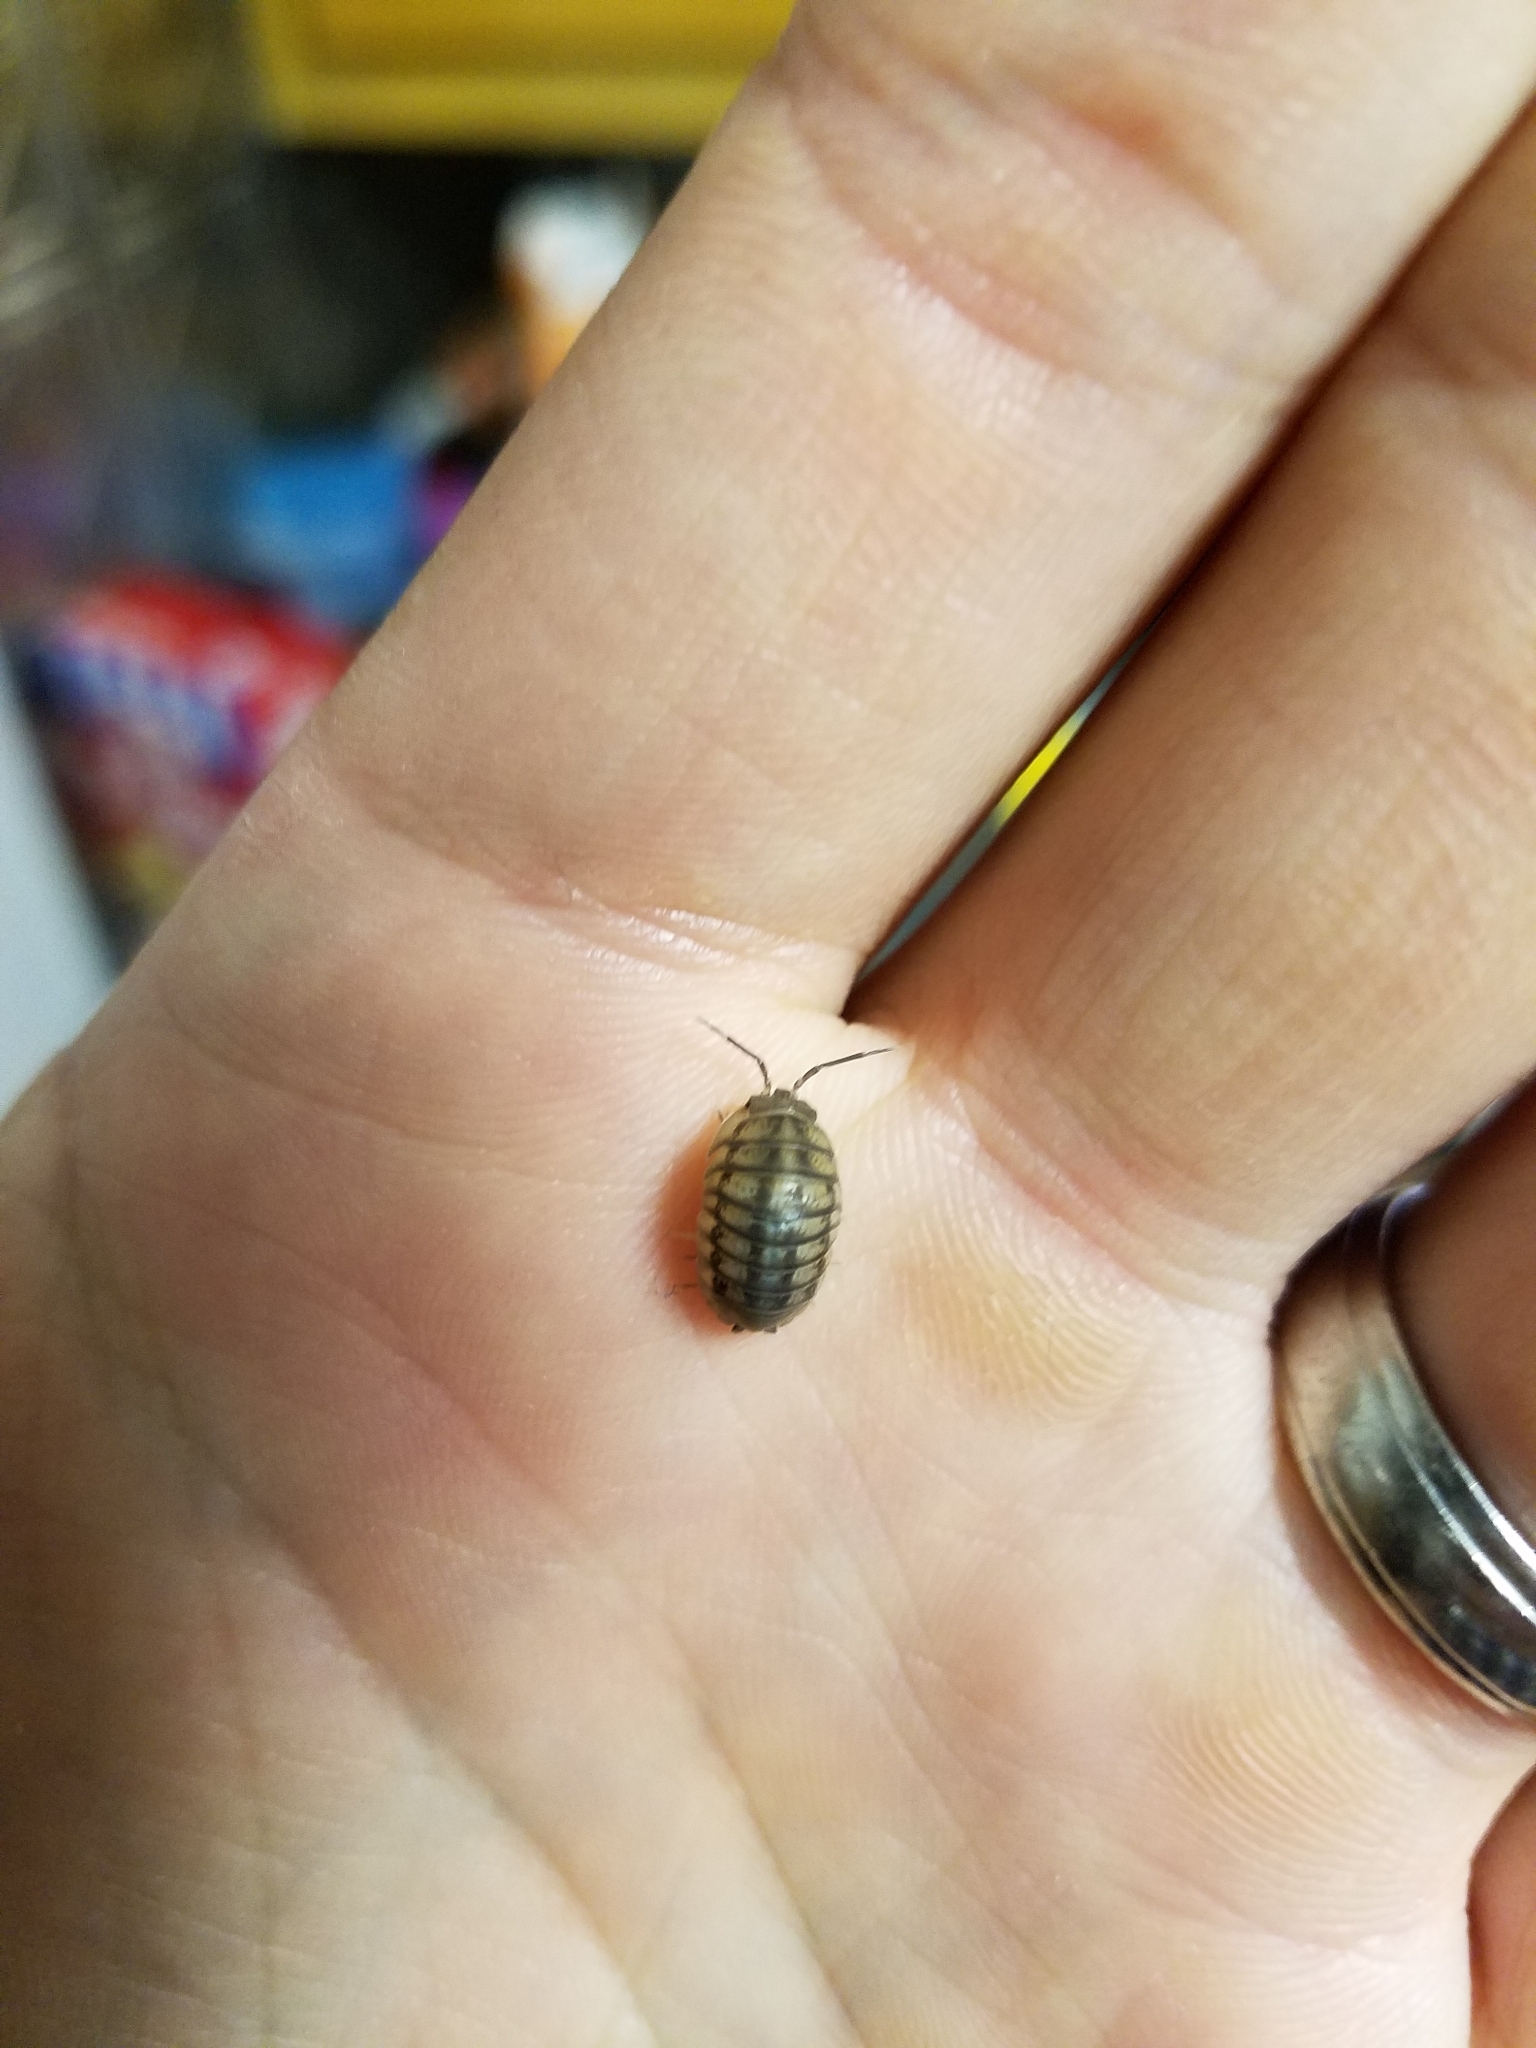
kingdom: Animalia
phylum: Arthropoda
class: Malacostraca
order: Isopoda
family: Armadillidiidae
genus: Armadillidium
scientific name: Armadillidium nasatum
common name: Isopod
